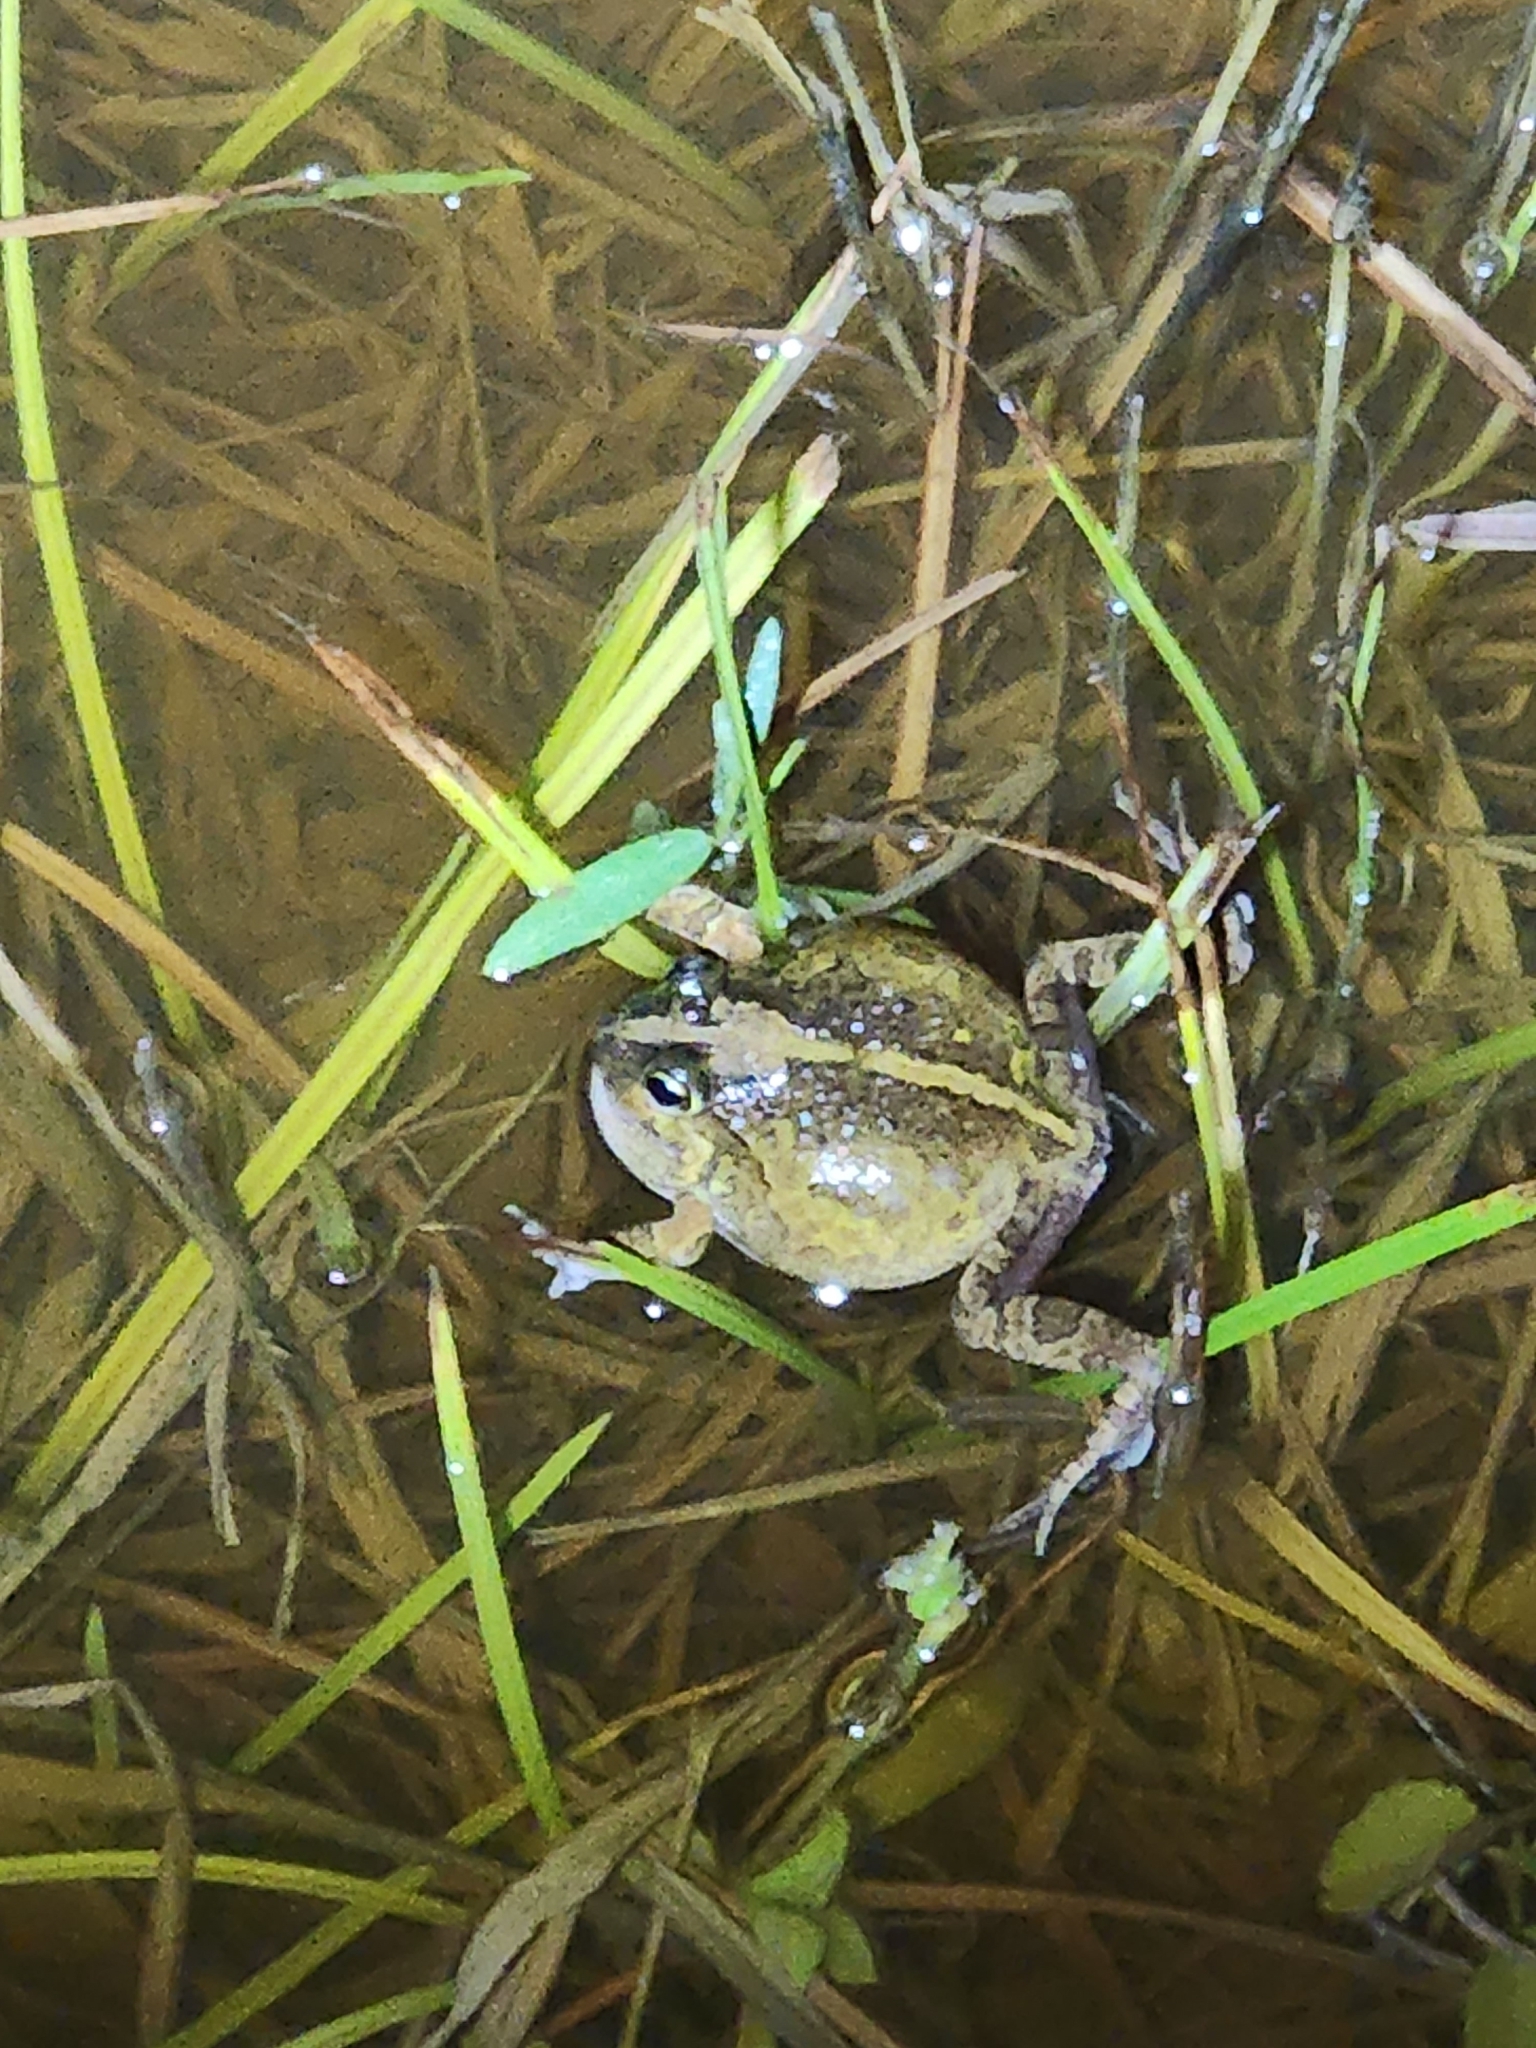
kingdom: Animalia
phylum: Chordata
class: Amphibia
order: Anura
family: Limnodynastidae
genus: Platyplectrum
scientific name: Platyplectrum ornatum
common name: Ornate burrowing frog
